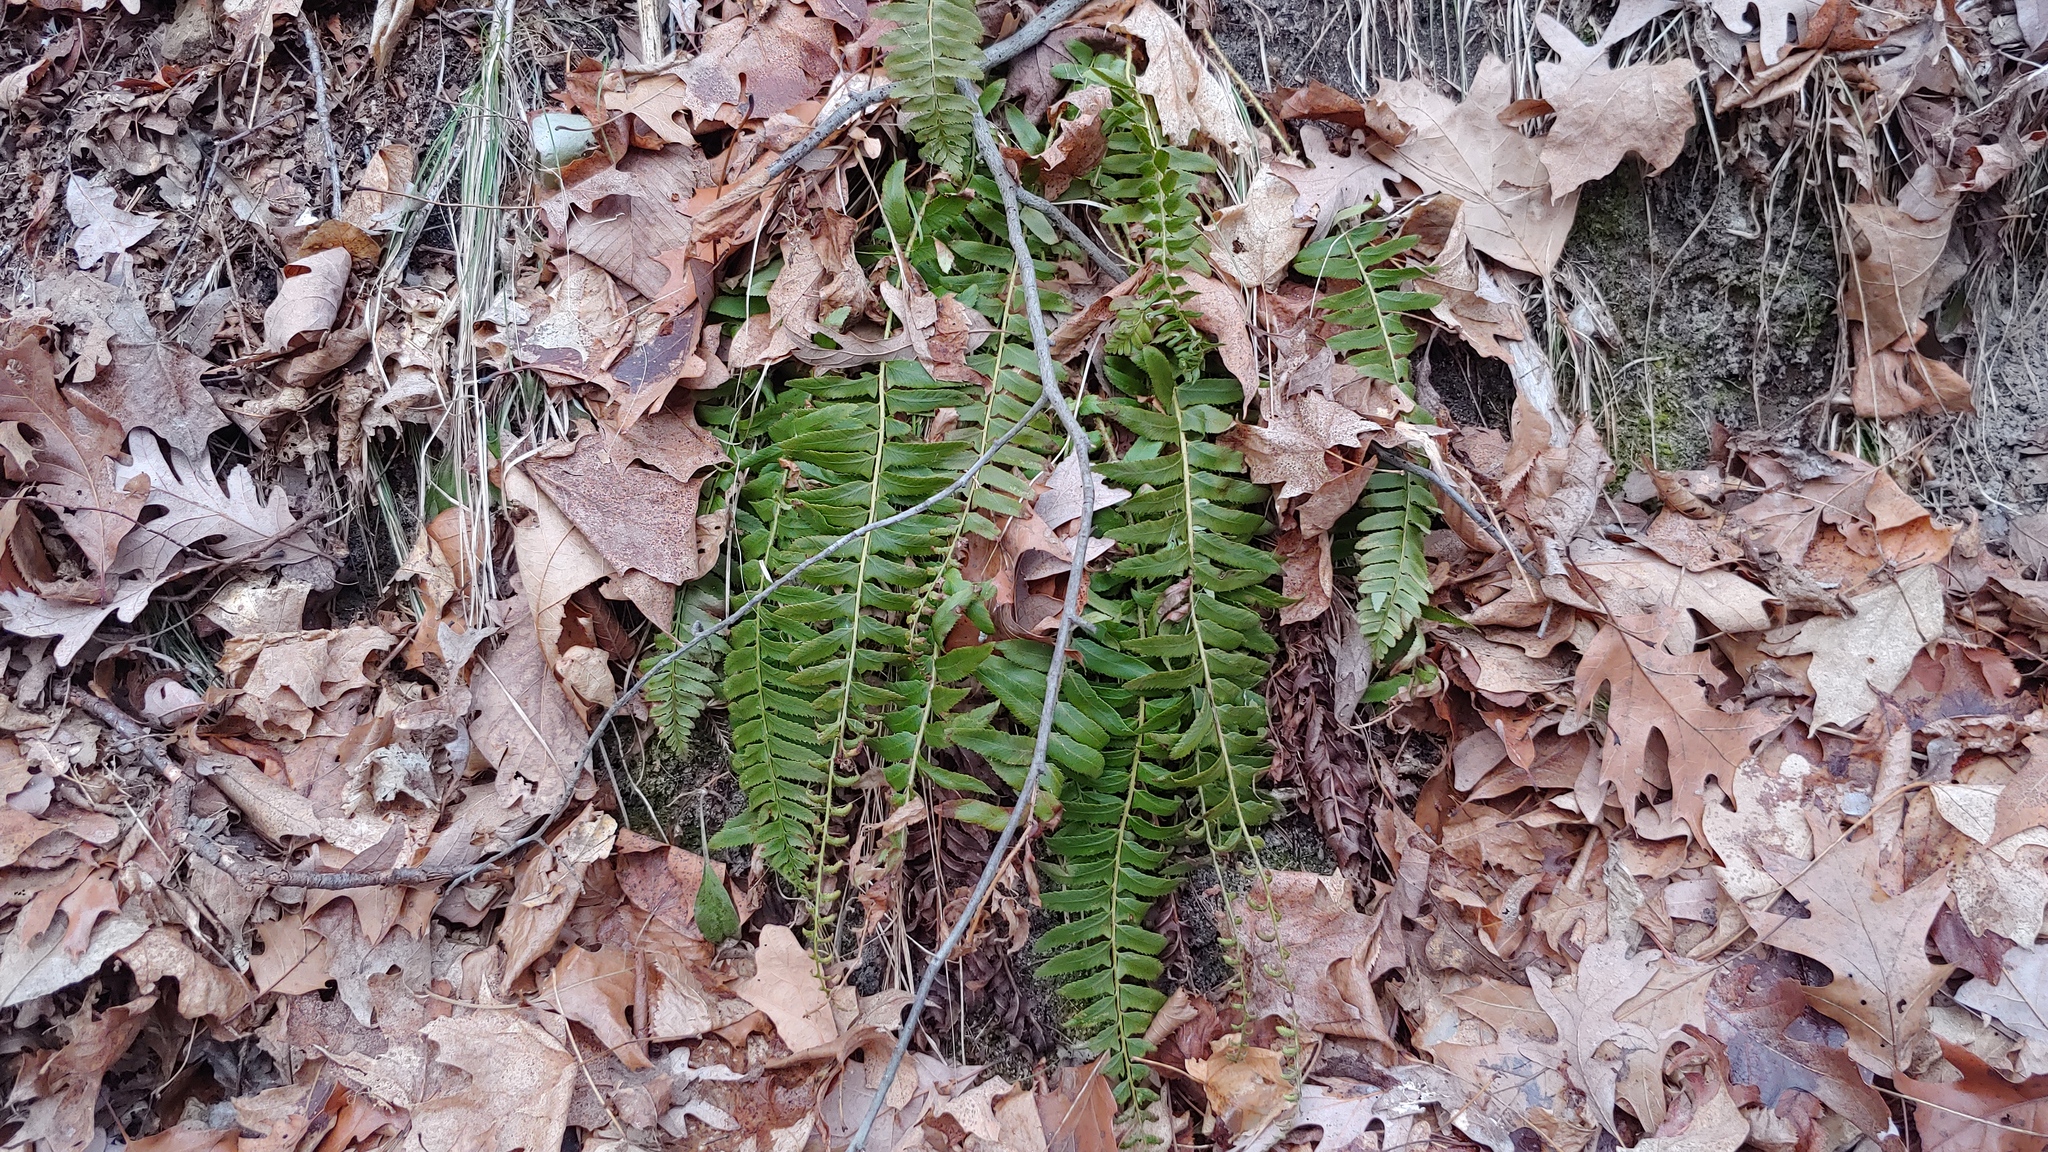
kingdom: Plantae
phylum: Tracheophyta
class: Polypodiopsida
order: Polypodiales
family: Dryopteridaceae
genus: Polystichum
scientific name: Polystichum acrostichoides
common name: Christmas fern
